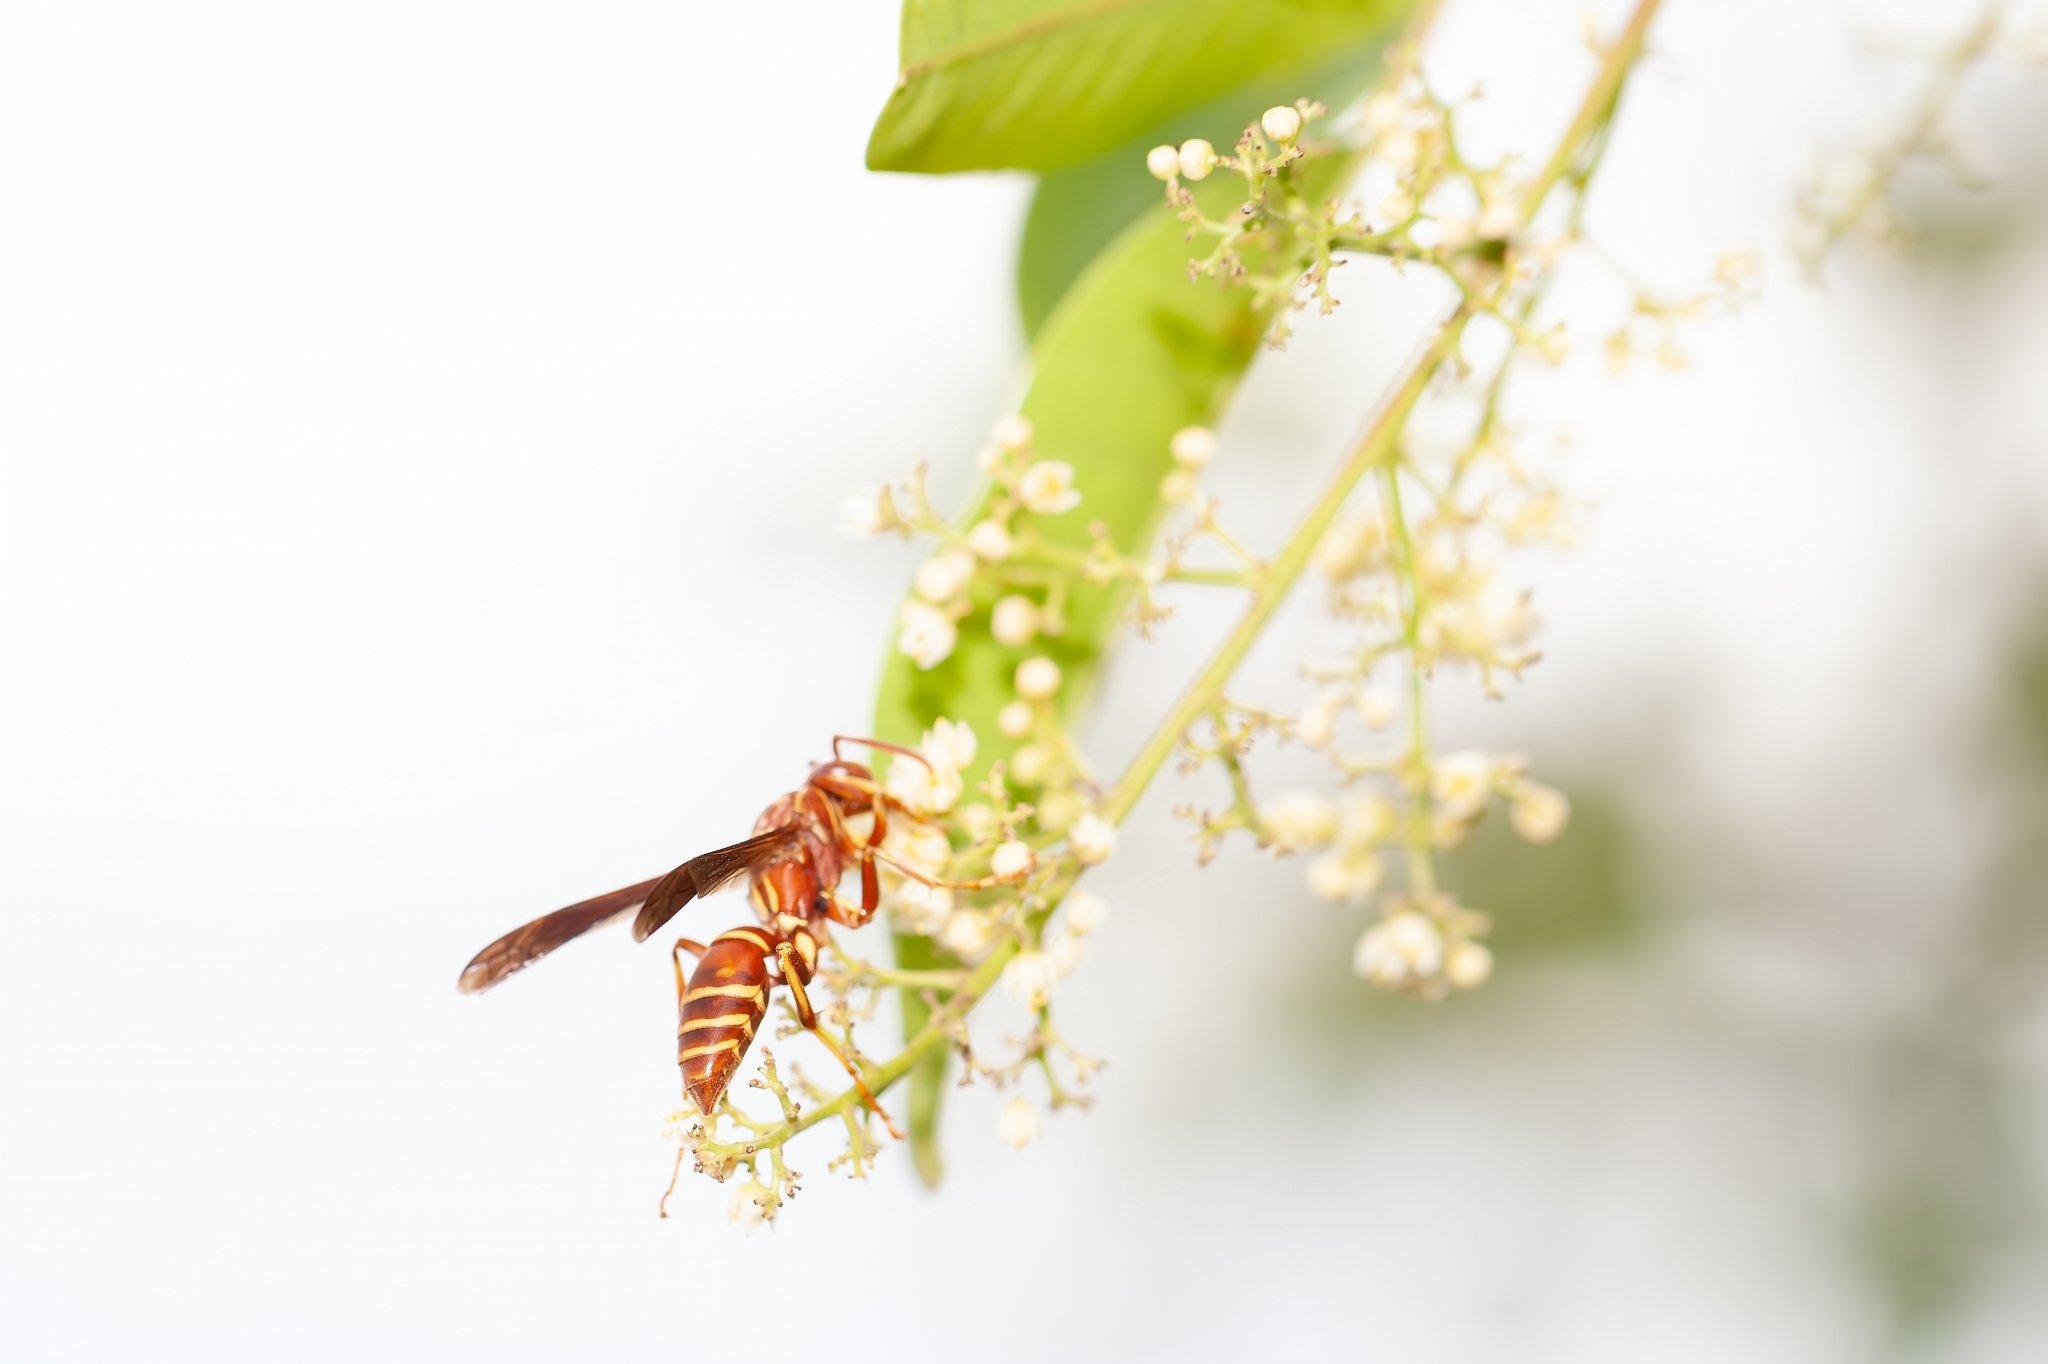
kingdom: Animalia
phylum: Arthropoda
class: Insecta
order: Hymenoptera
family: Eumenidae
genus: Polistes
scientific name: Polistes bellicosus
